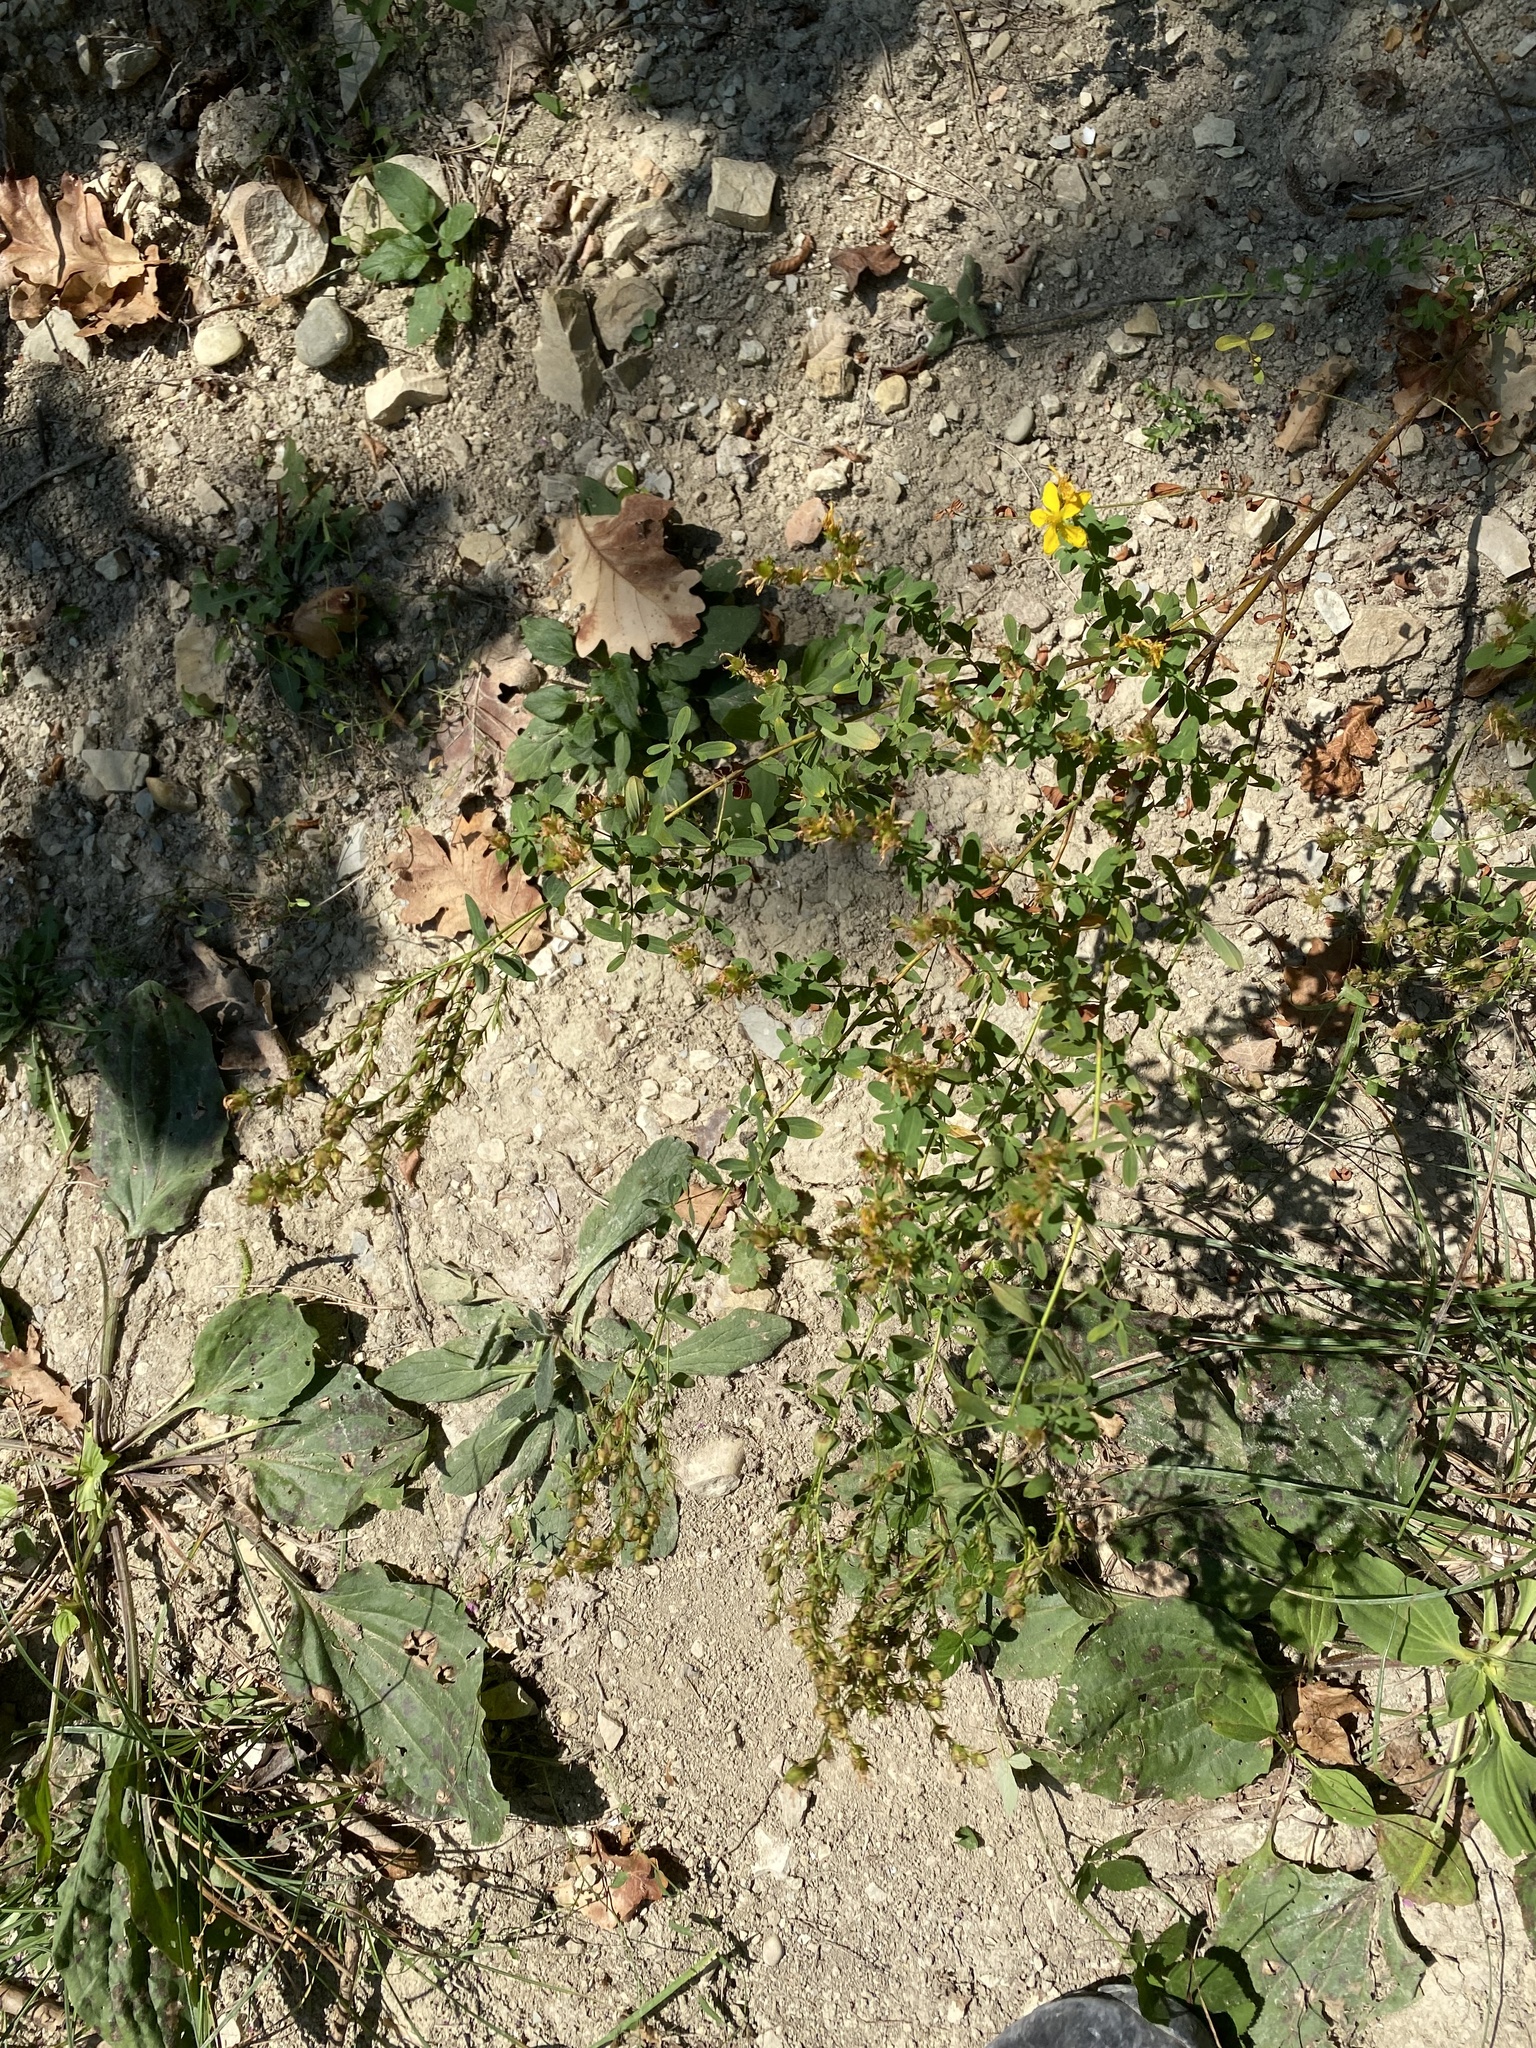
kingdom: Plantae
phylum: Tracheophyta
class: Magnoliopsida
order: Malpighiales
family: Hypericaceae
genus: Hypericum
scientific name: Hypericum perforatum
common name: Common st. johnswort
